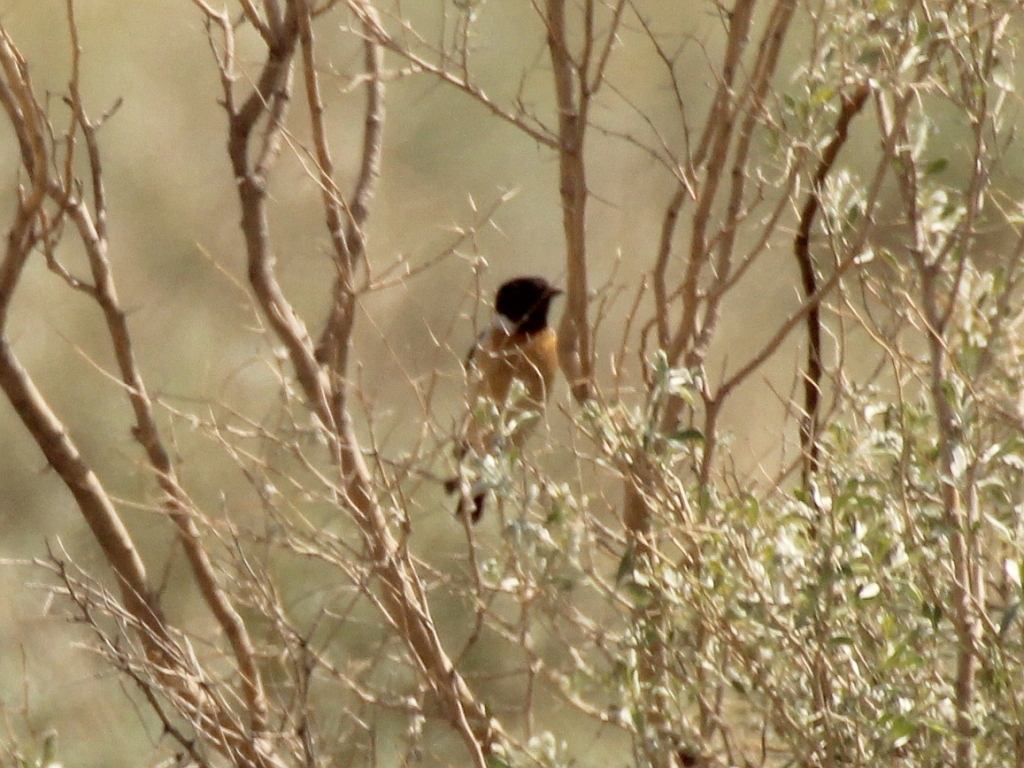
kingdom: Animalia
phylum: Chordata
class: Aves
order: Passeriformes
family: Muscicapidae
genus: Saxicola
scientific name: Saxicola maurus
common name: Siberian stonechat
